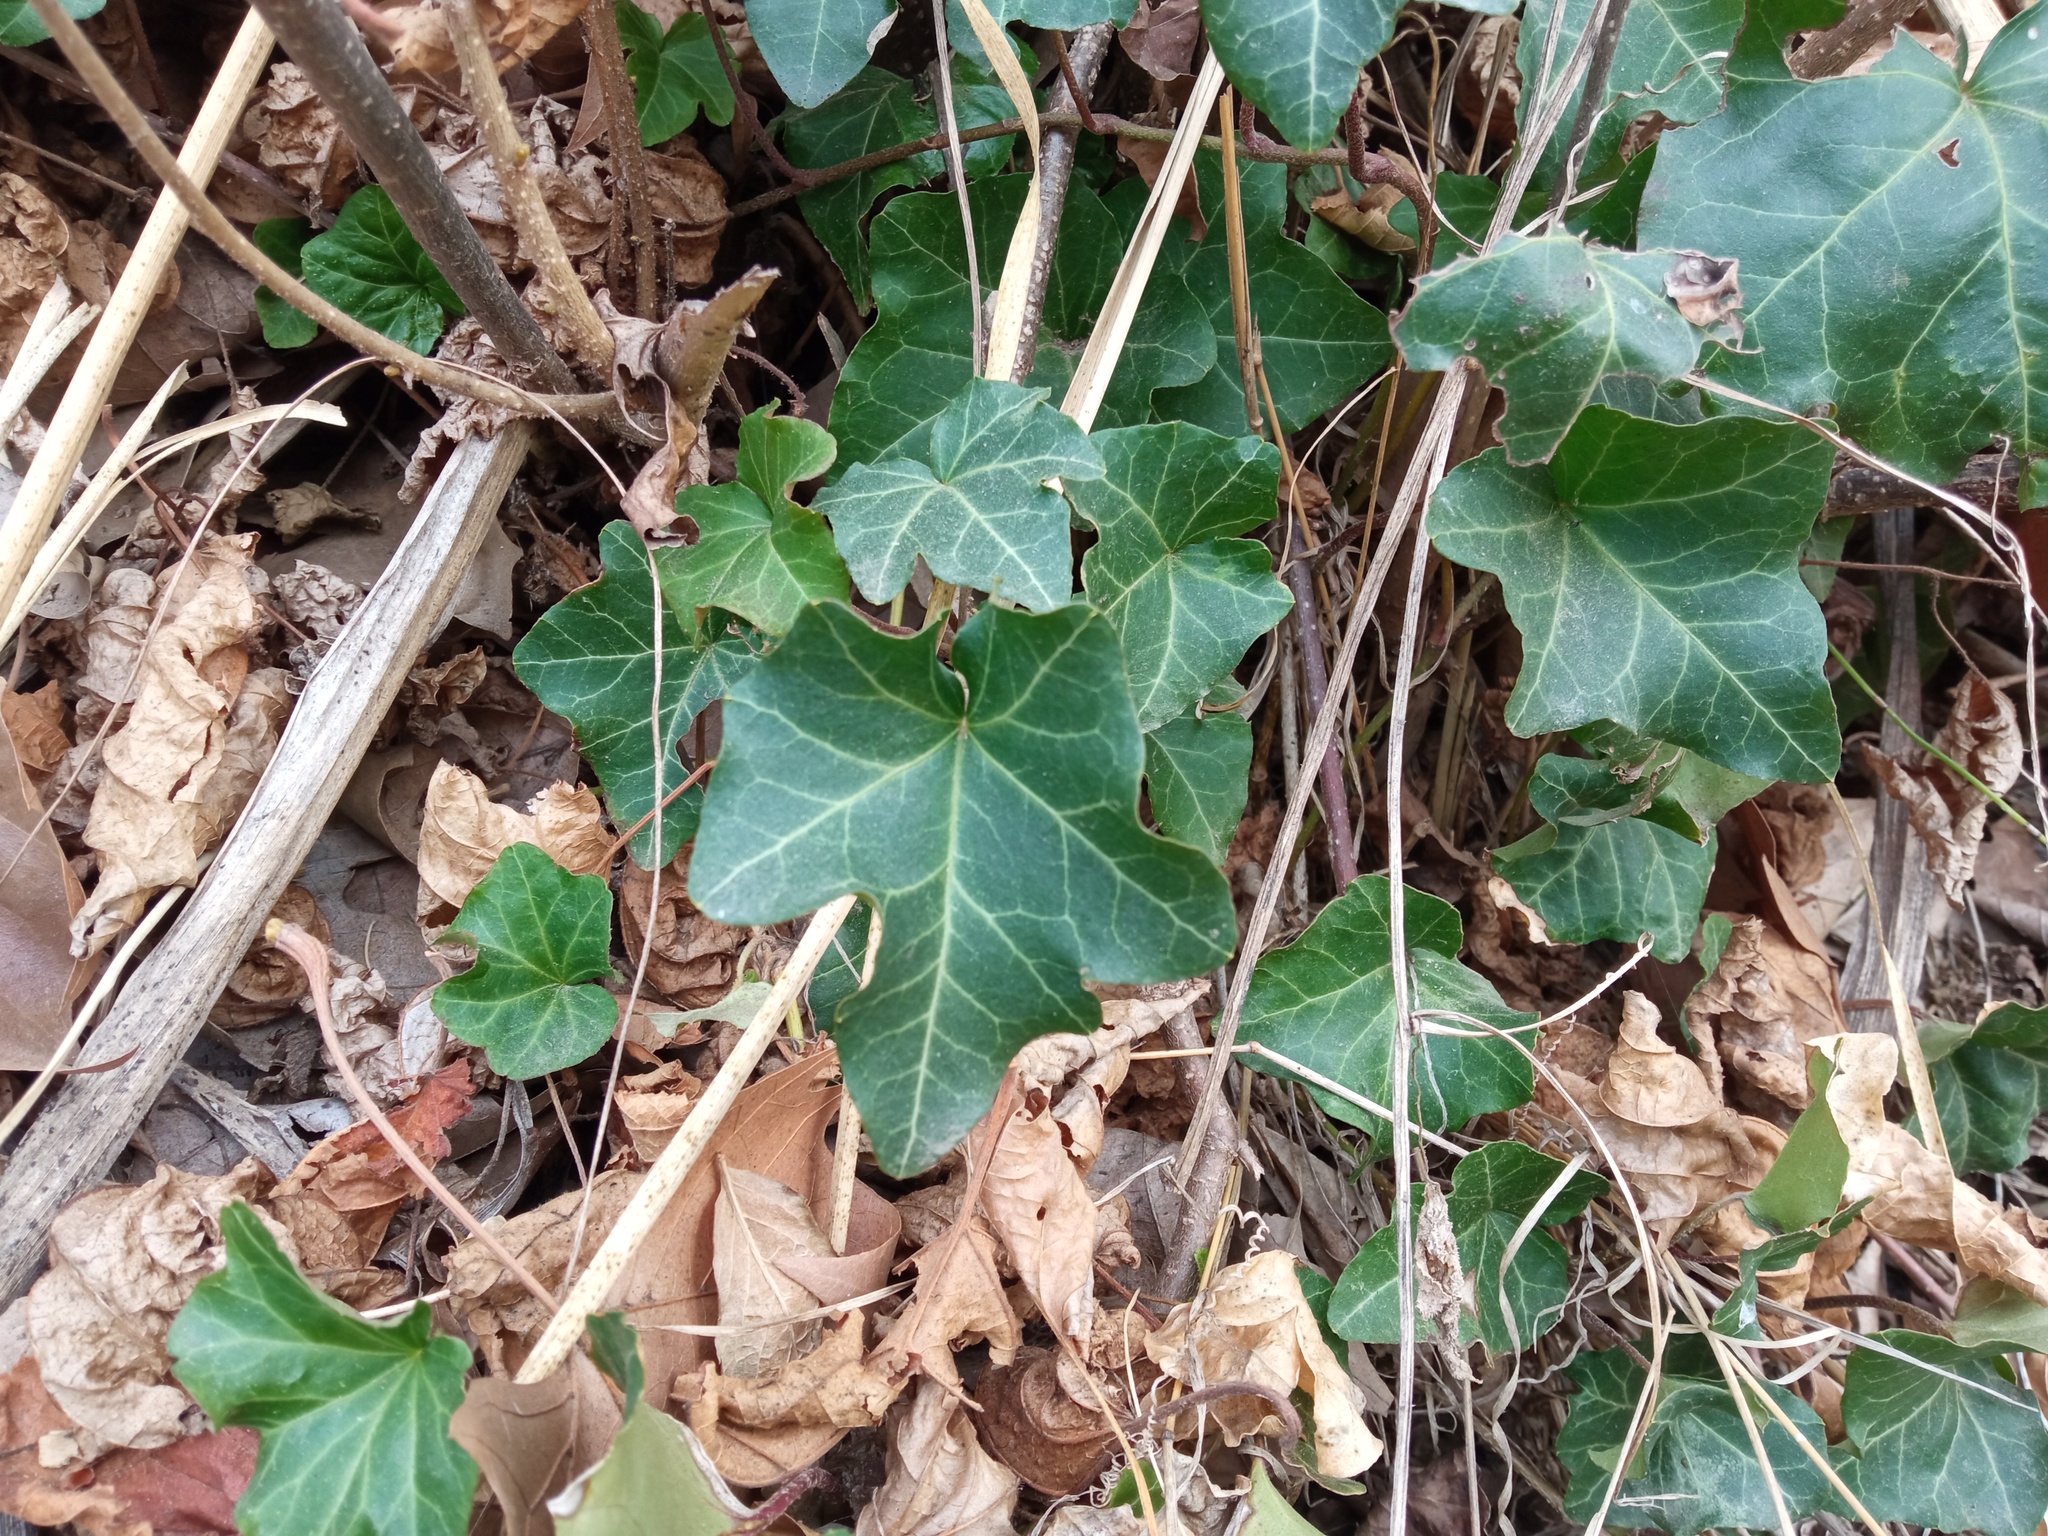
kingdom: Plantae
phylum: Tracheophyta
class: Magnoliopsida
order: Apiales
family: Araliaceae
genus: Hedera
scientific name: Hedera helix
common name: Ivy
